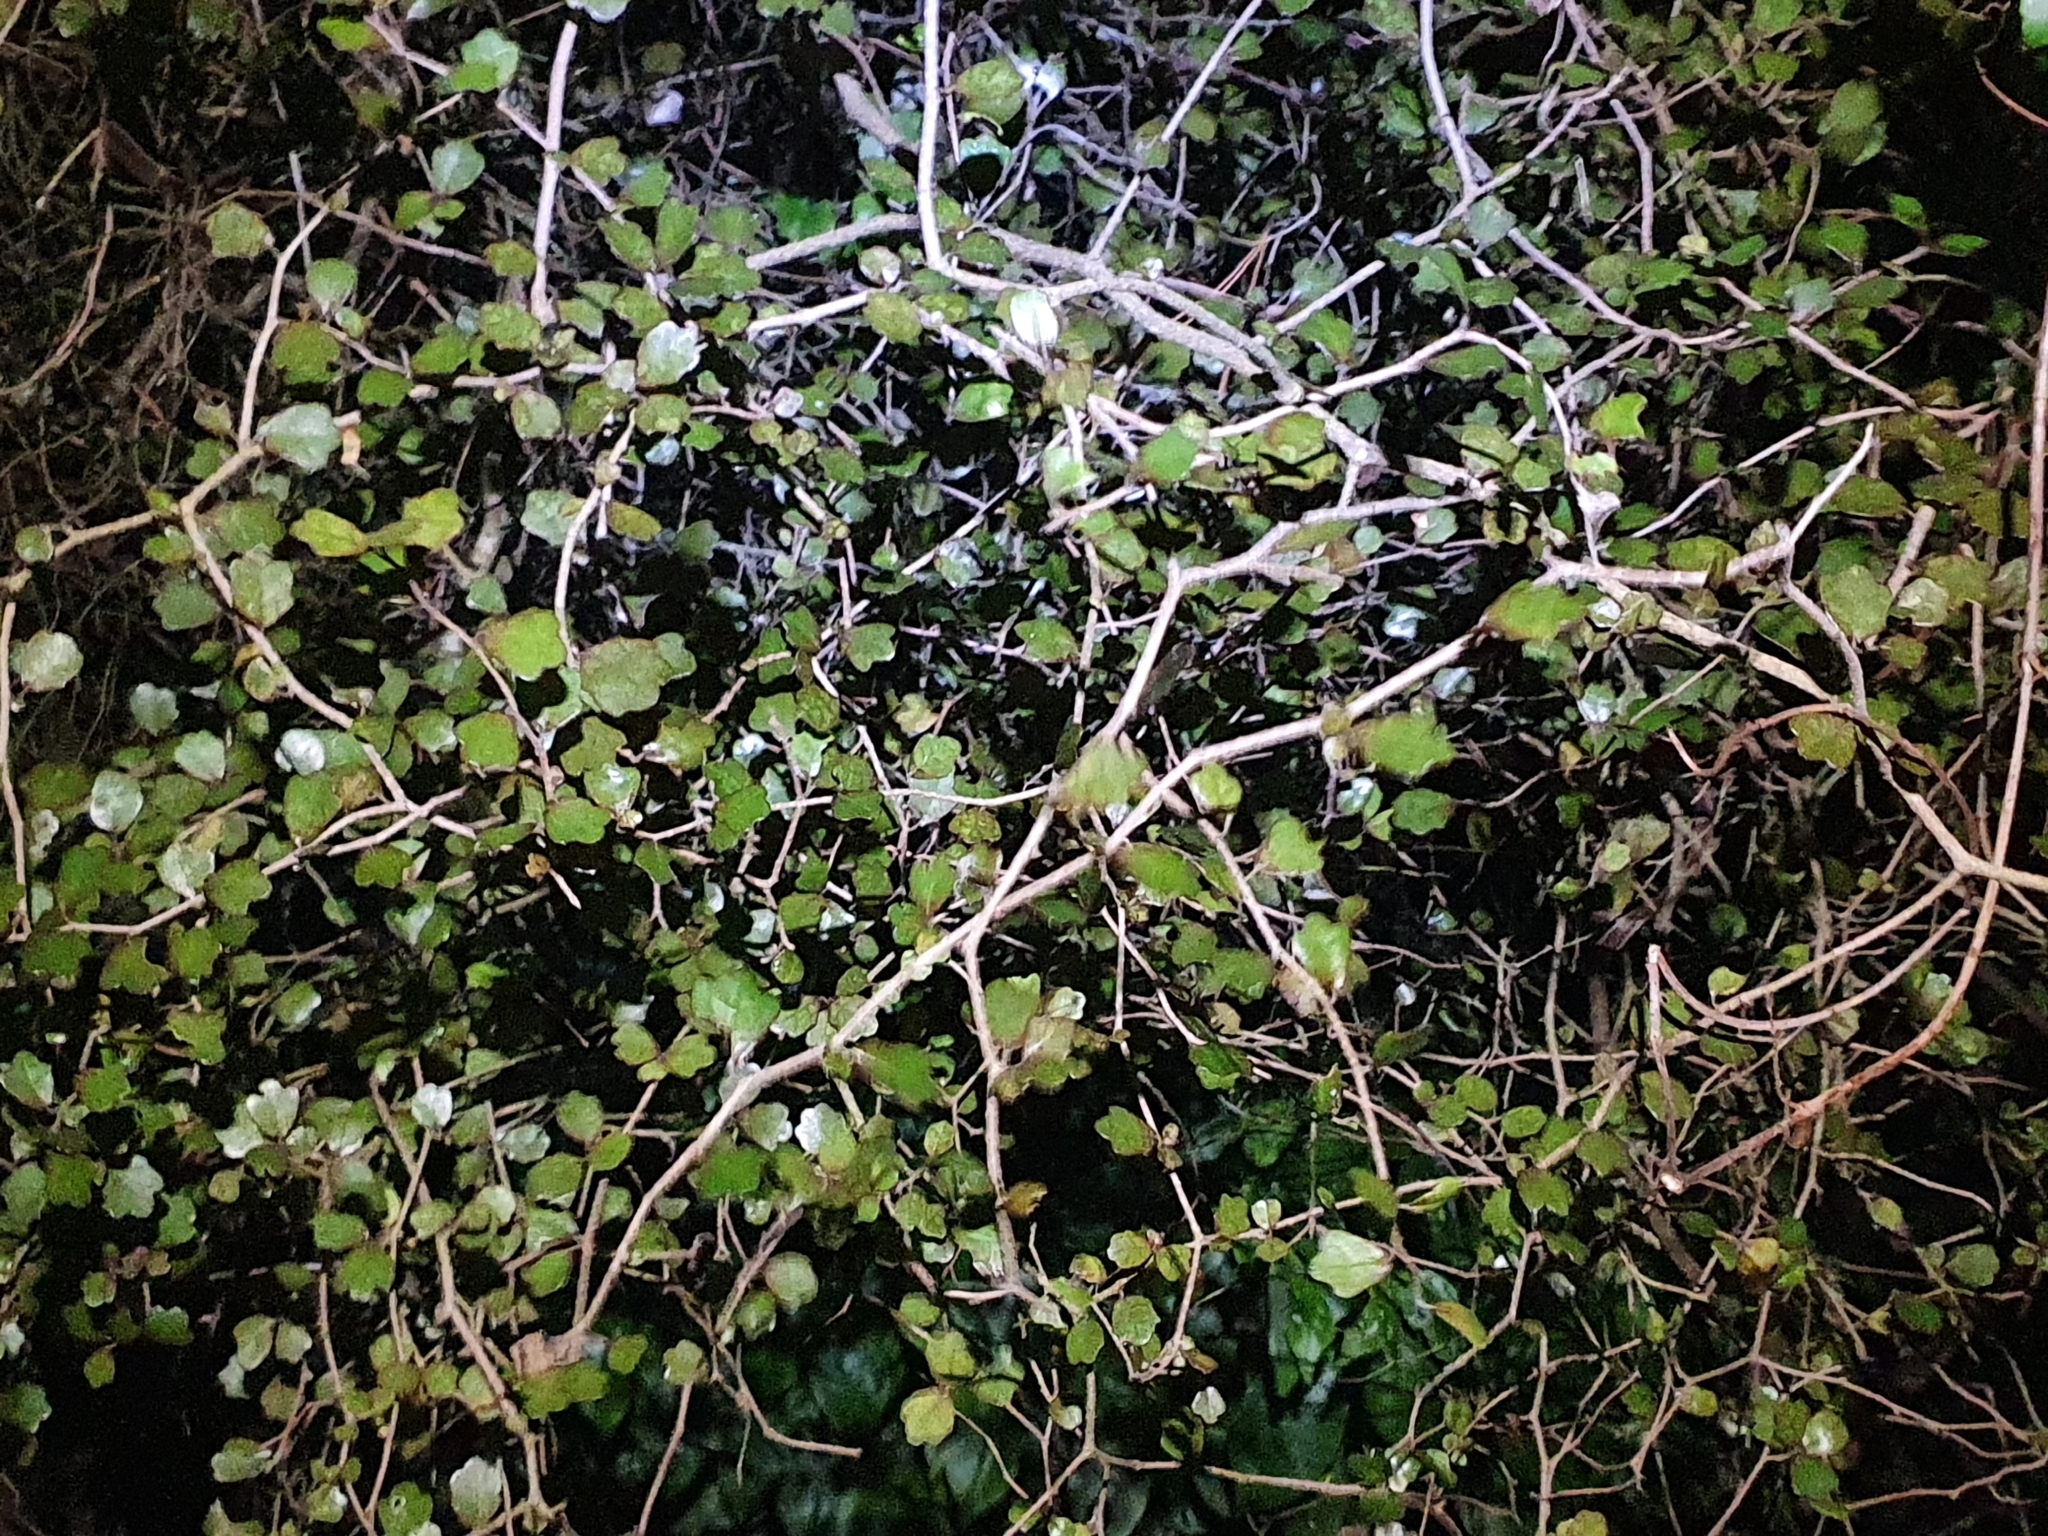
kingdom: Plantae
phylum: Tracheophyta
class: Magnoliopsida
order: Apiales
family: Pennantiaceae
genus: Pennantia
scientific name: Pennantia corymbosa
